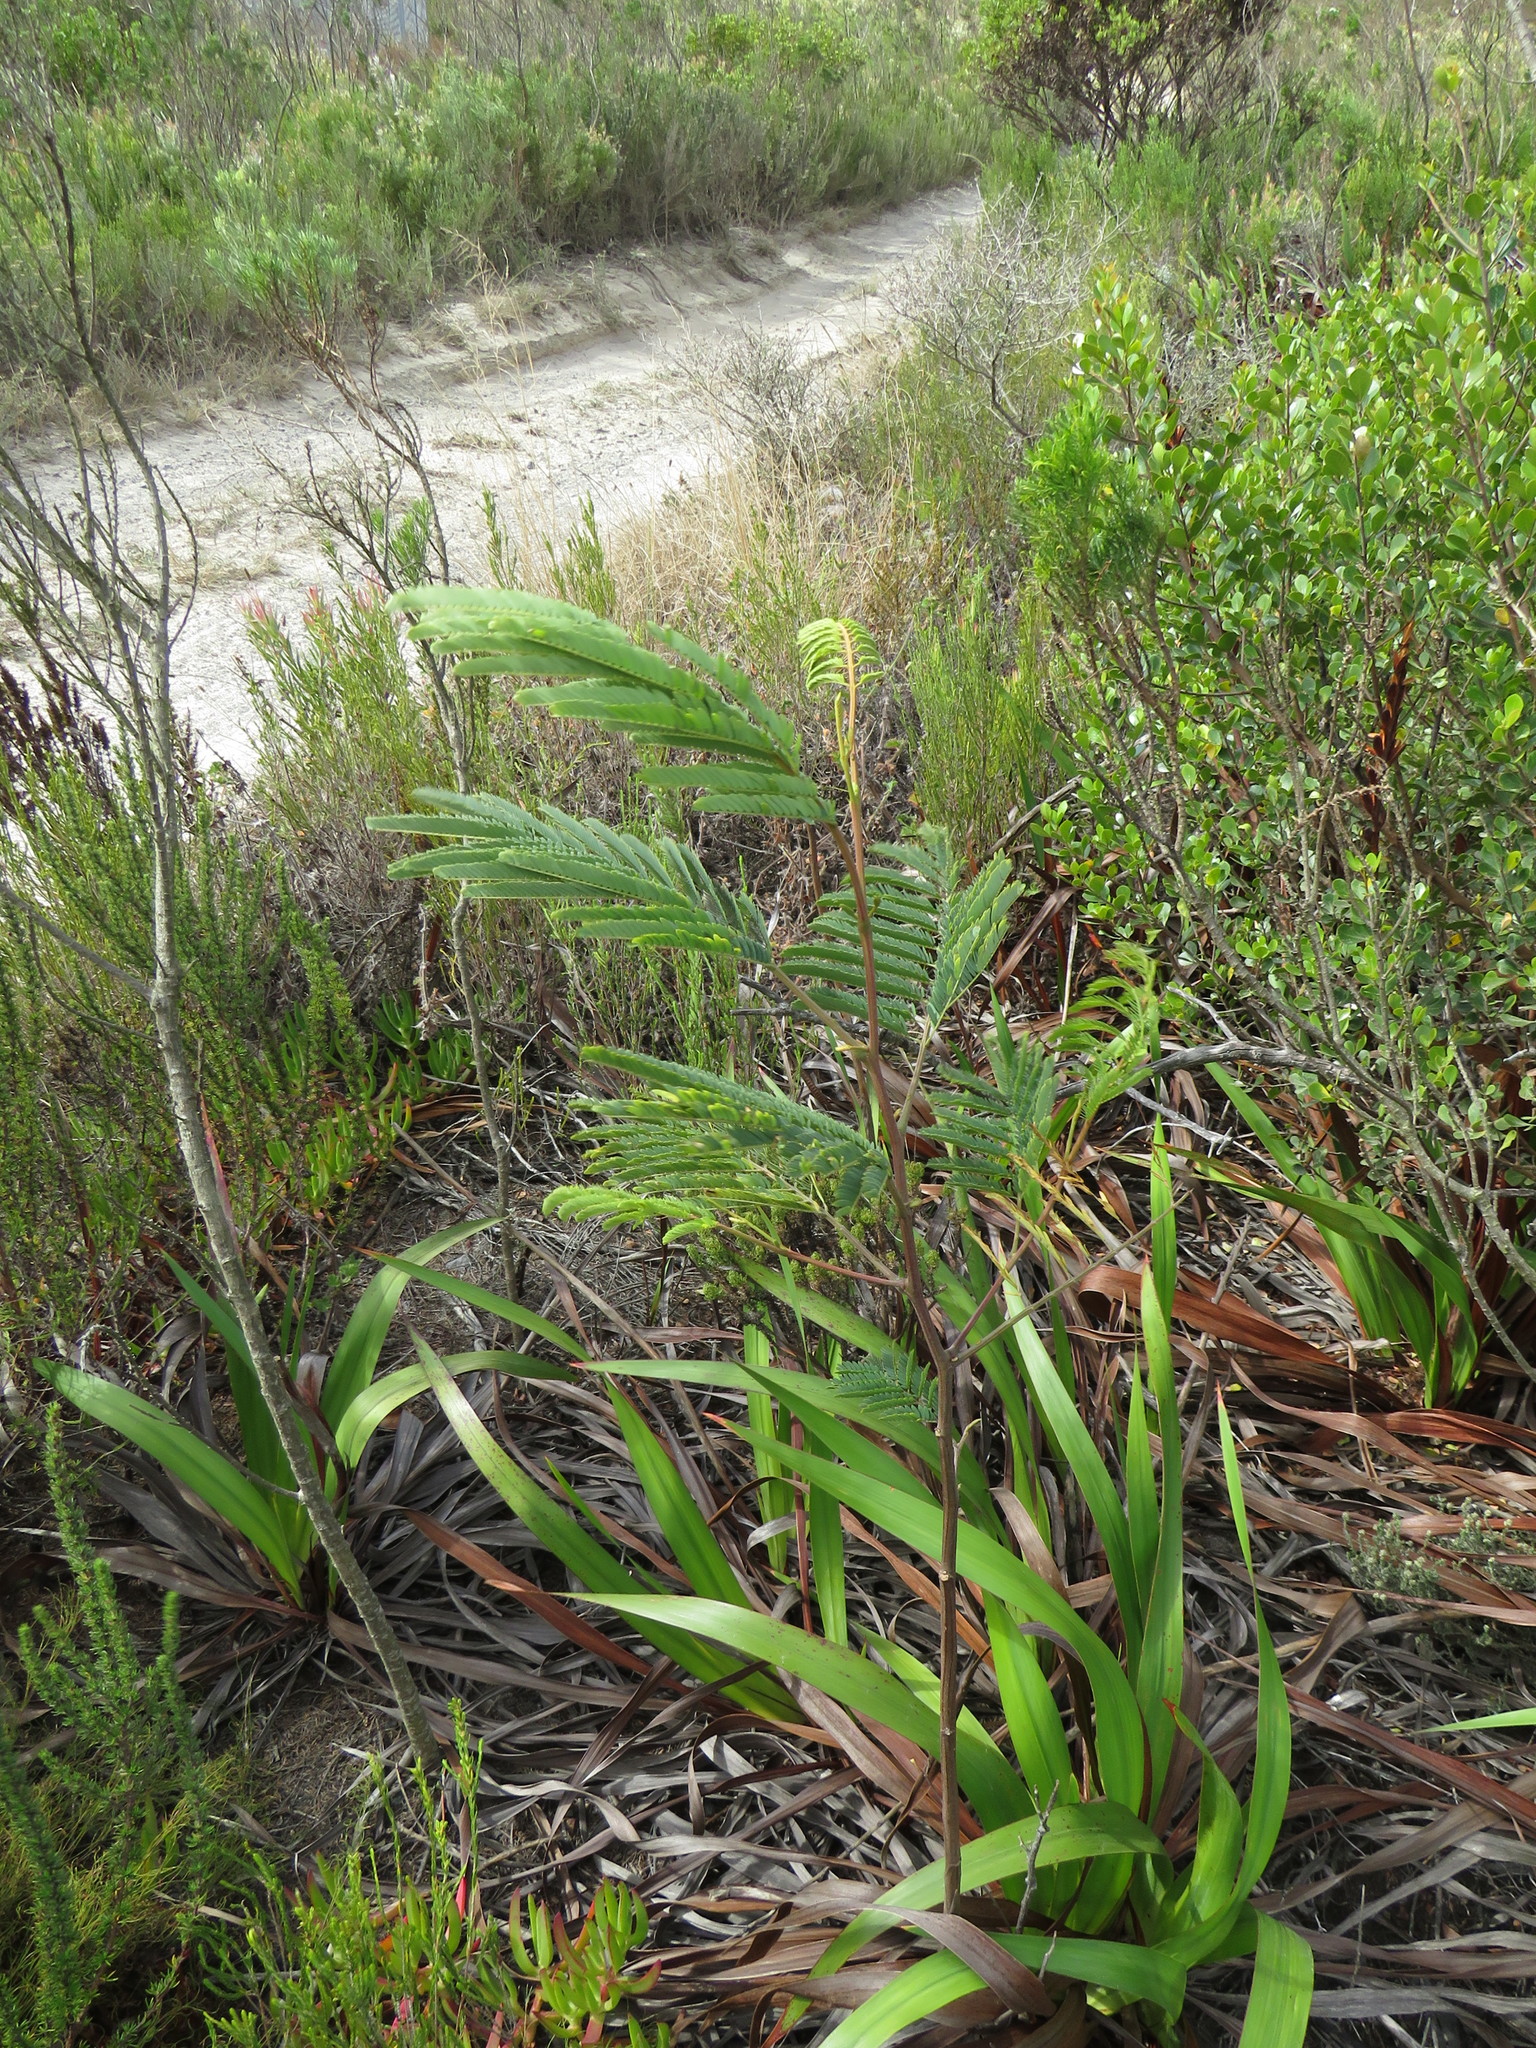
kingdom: Plantae
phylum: Tracheophyta
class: Magnoliopsida
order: Fabales
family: Fabaceae
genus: Paraserianthes
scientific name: Paraserianthes lophantha
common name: Plume albizia
